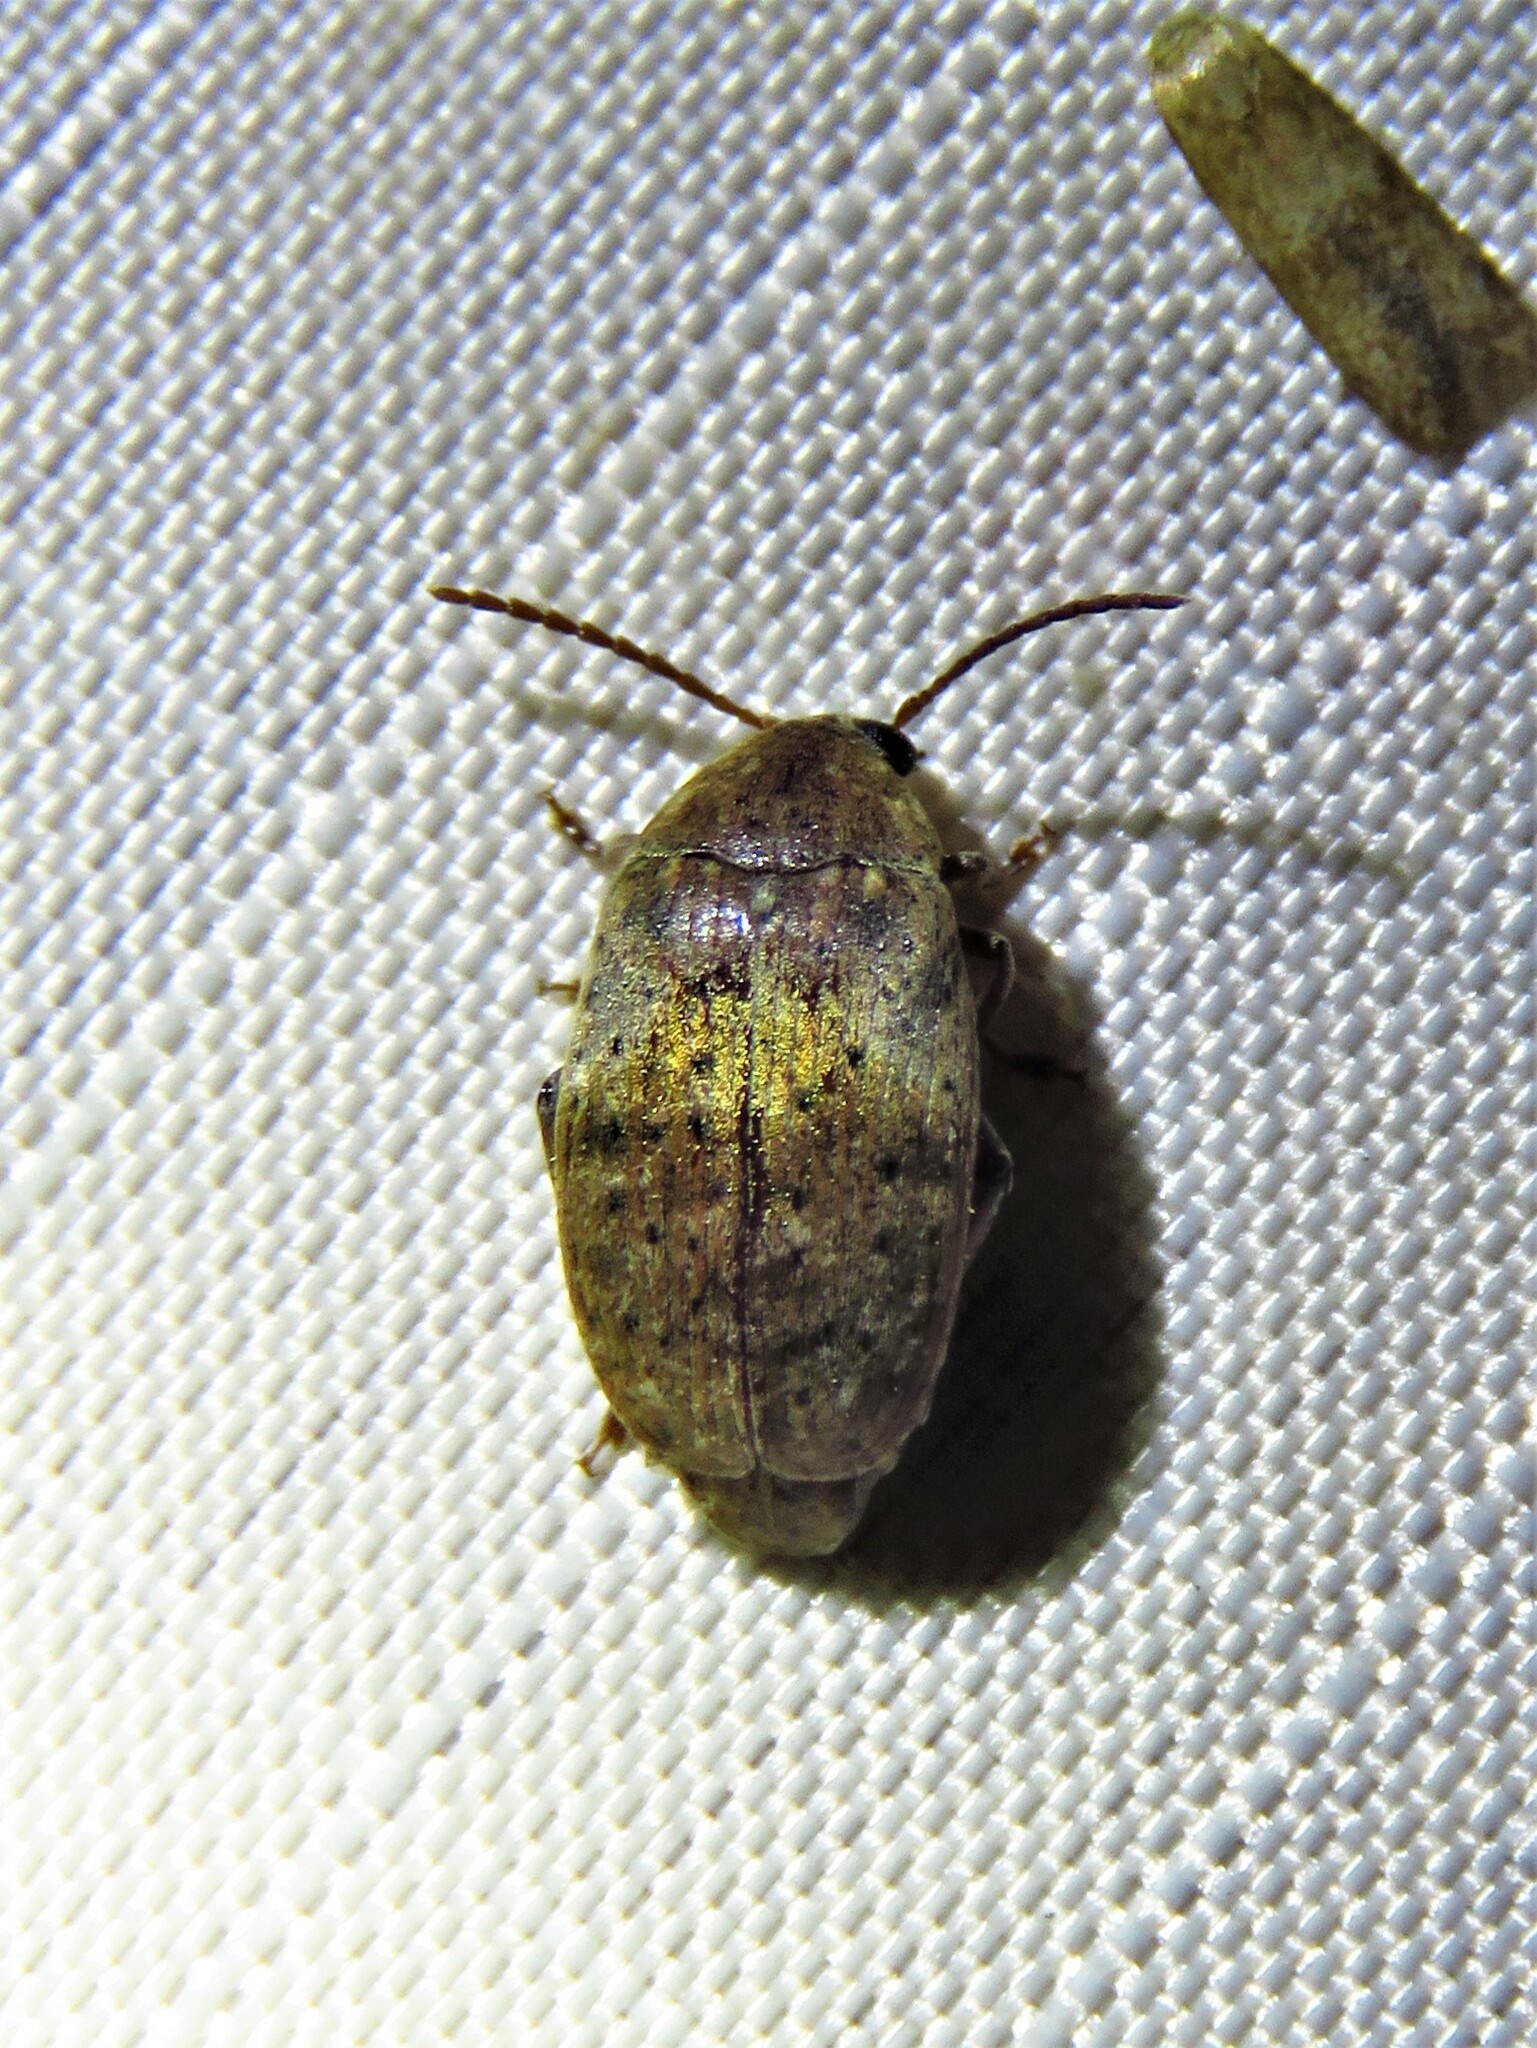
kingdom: Animalia
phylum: Arthropoda
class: Insecta
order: Coleoptera
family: Chrysomelidae
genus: Amblycerus
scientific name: Amblycerus robiniae
